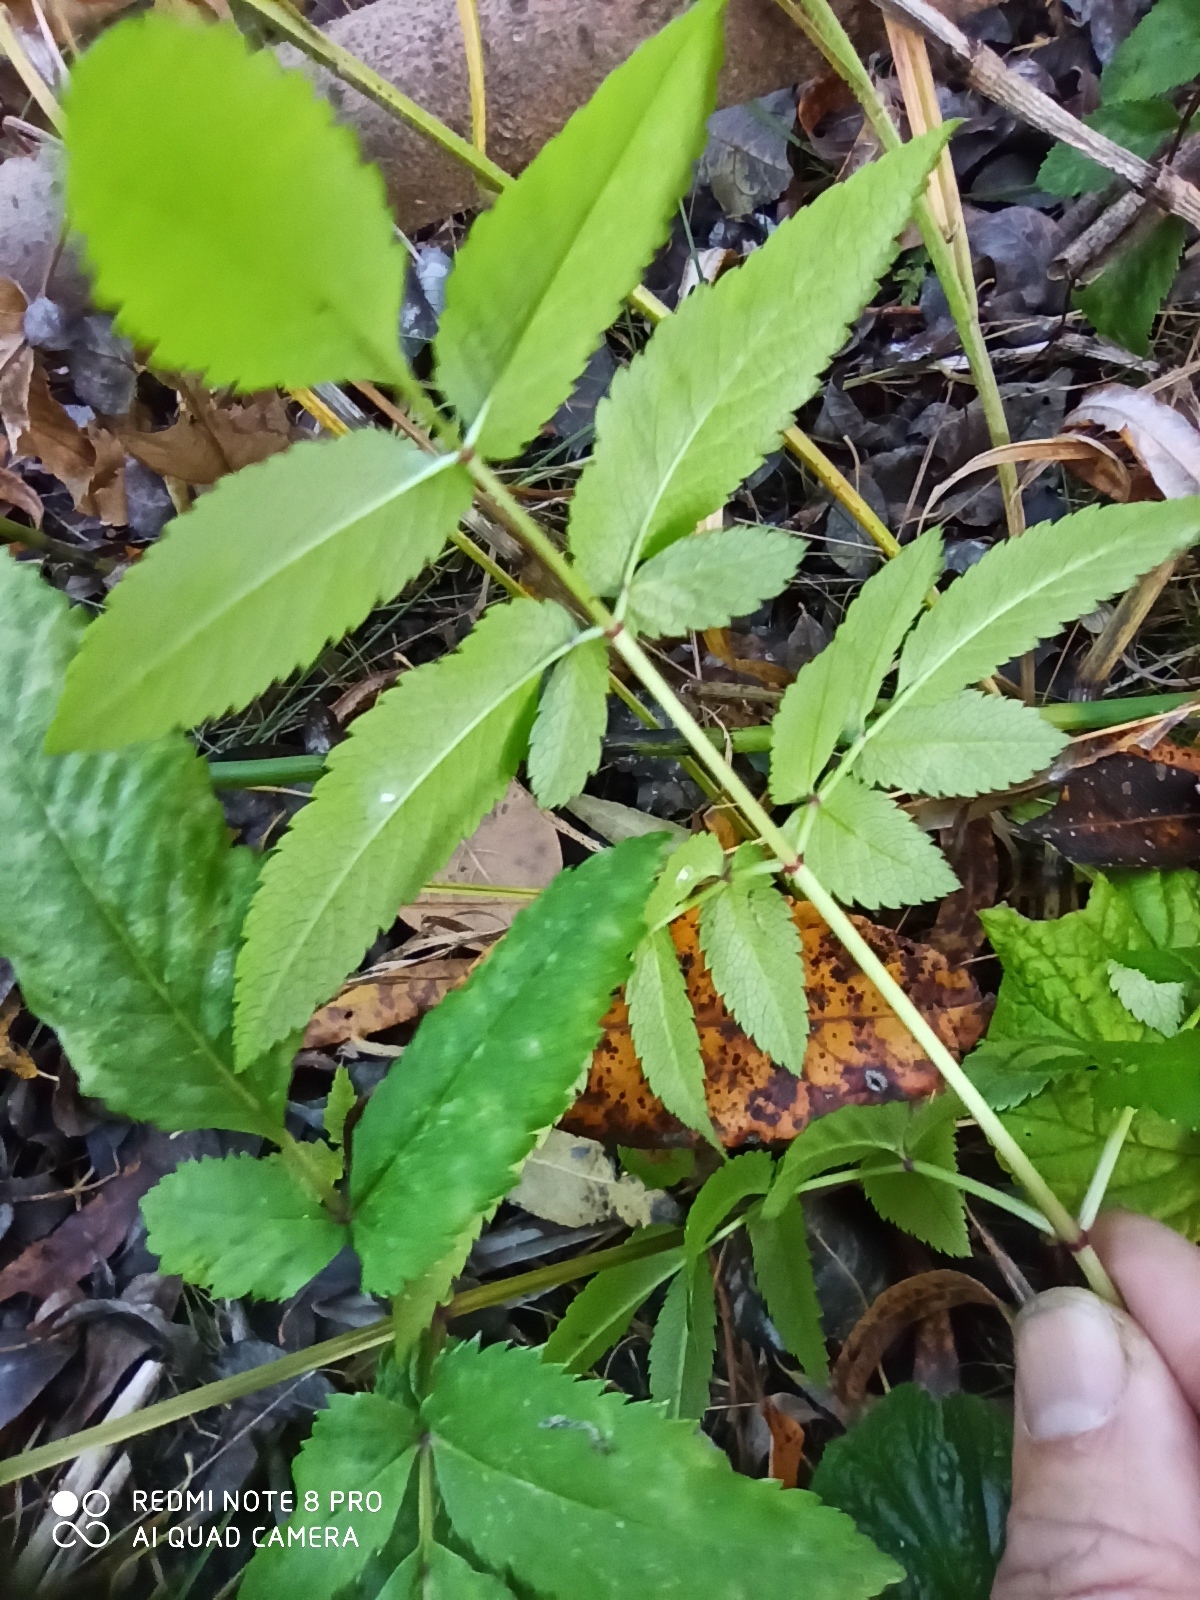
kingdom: Plantae
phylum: Tracheophyta
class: Magnoliopsida
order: Apiales
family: Apiaceae
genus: Angelica
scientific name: Angelica sylvestris
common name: Wild angelica
